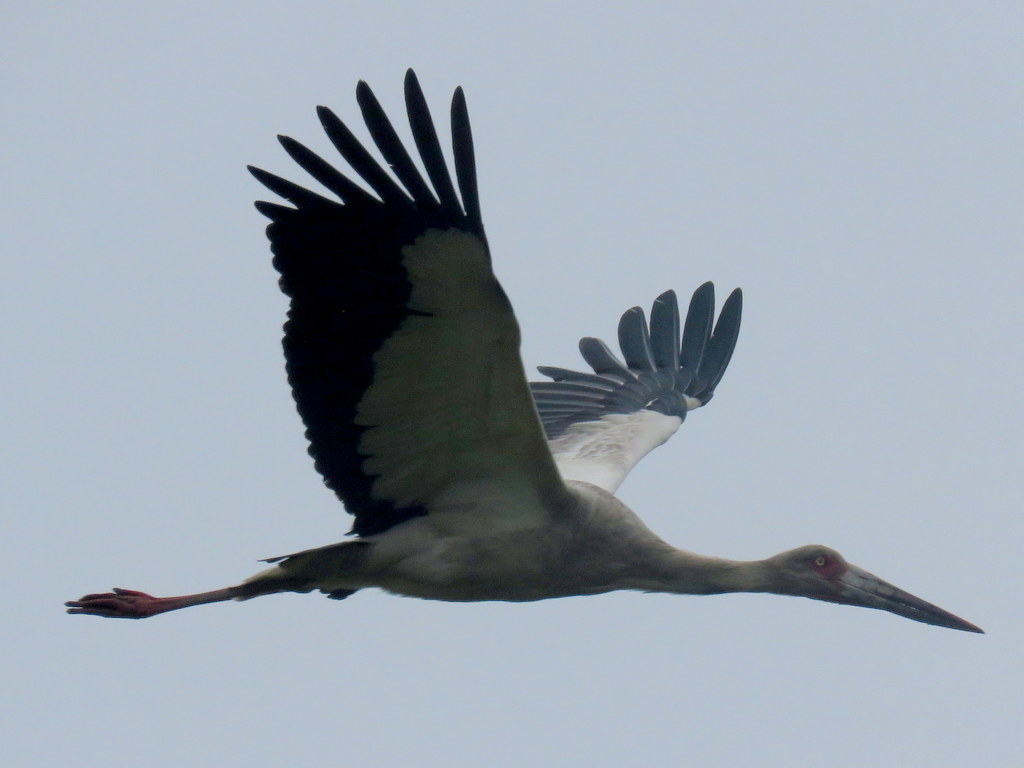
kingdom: Animalia
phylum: Chordata
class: Aves
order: Ciconiiformes
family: Ciconiidae
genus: Ciconia
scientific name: Ciconia maguari
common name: Maguari stork
